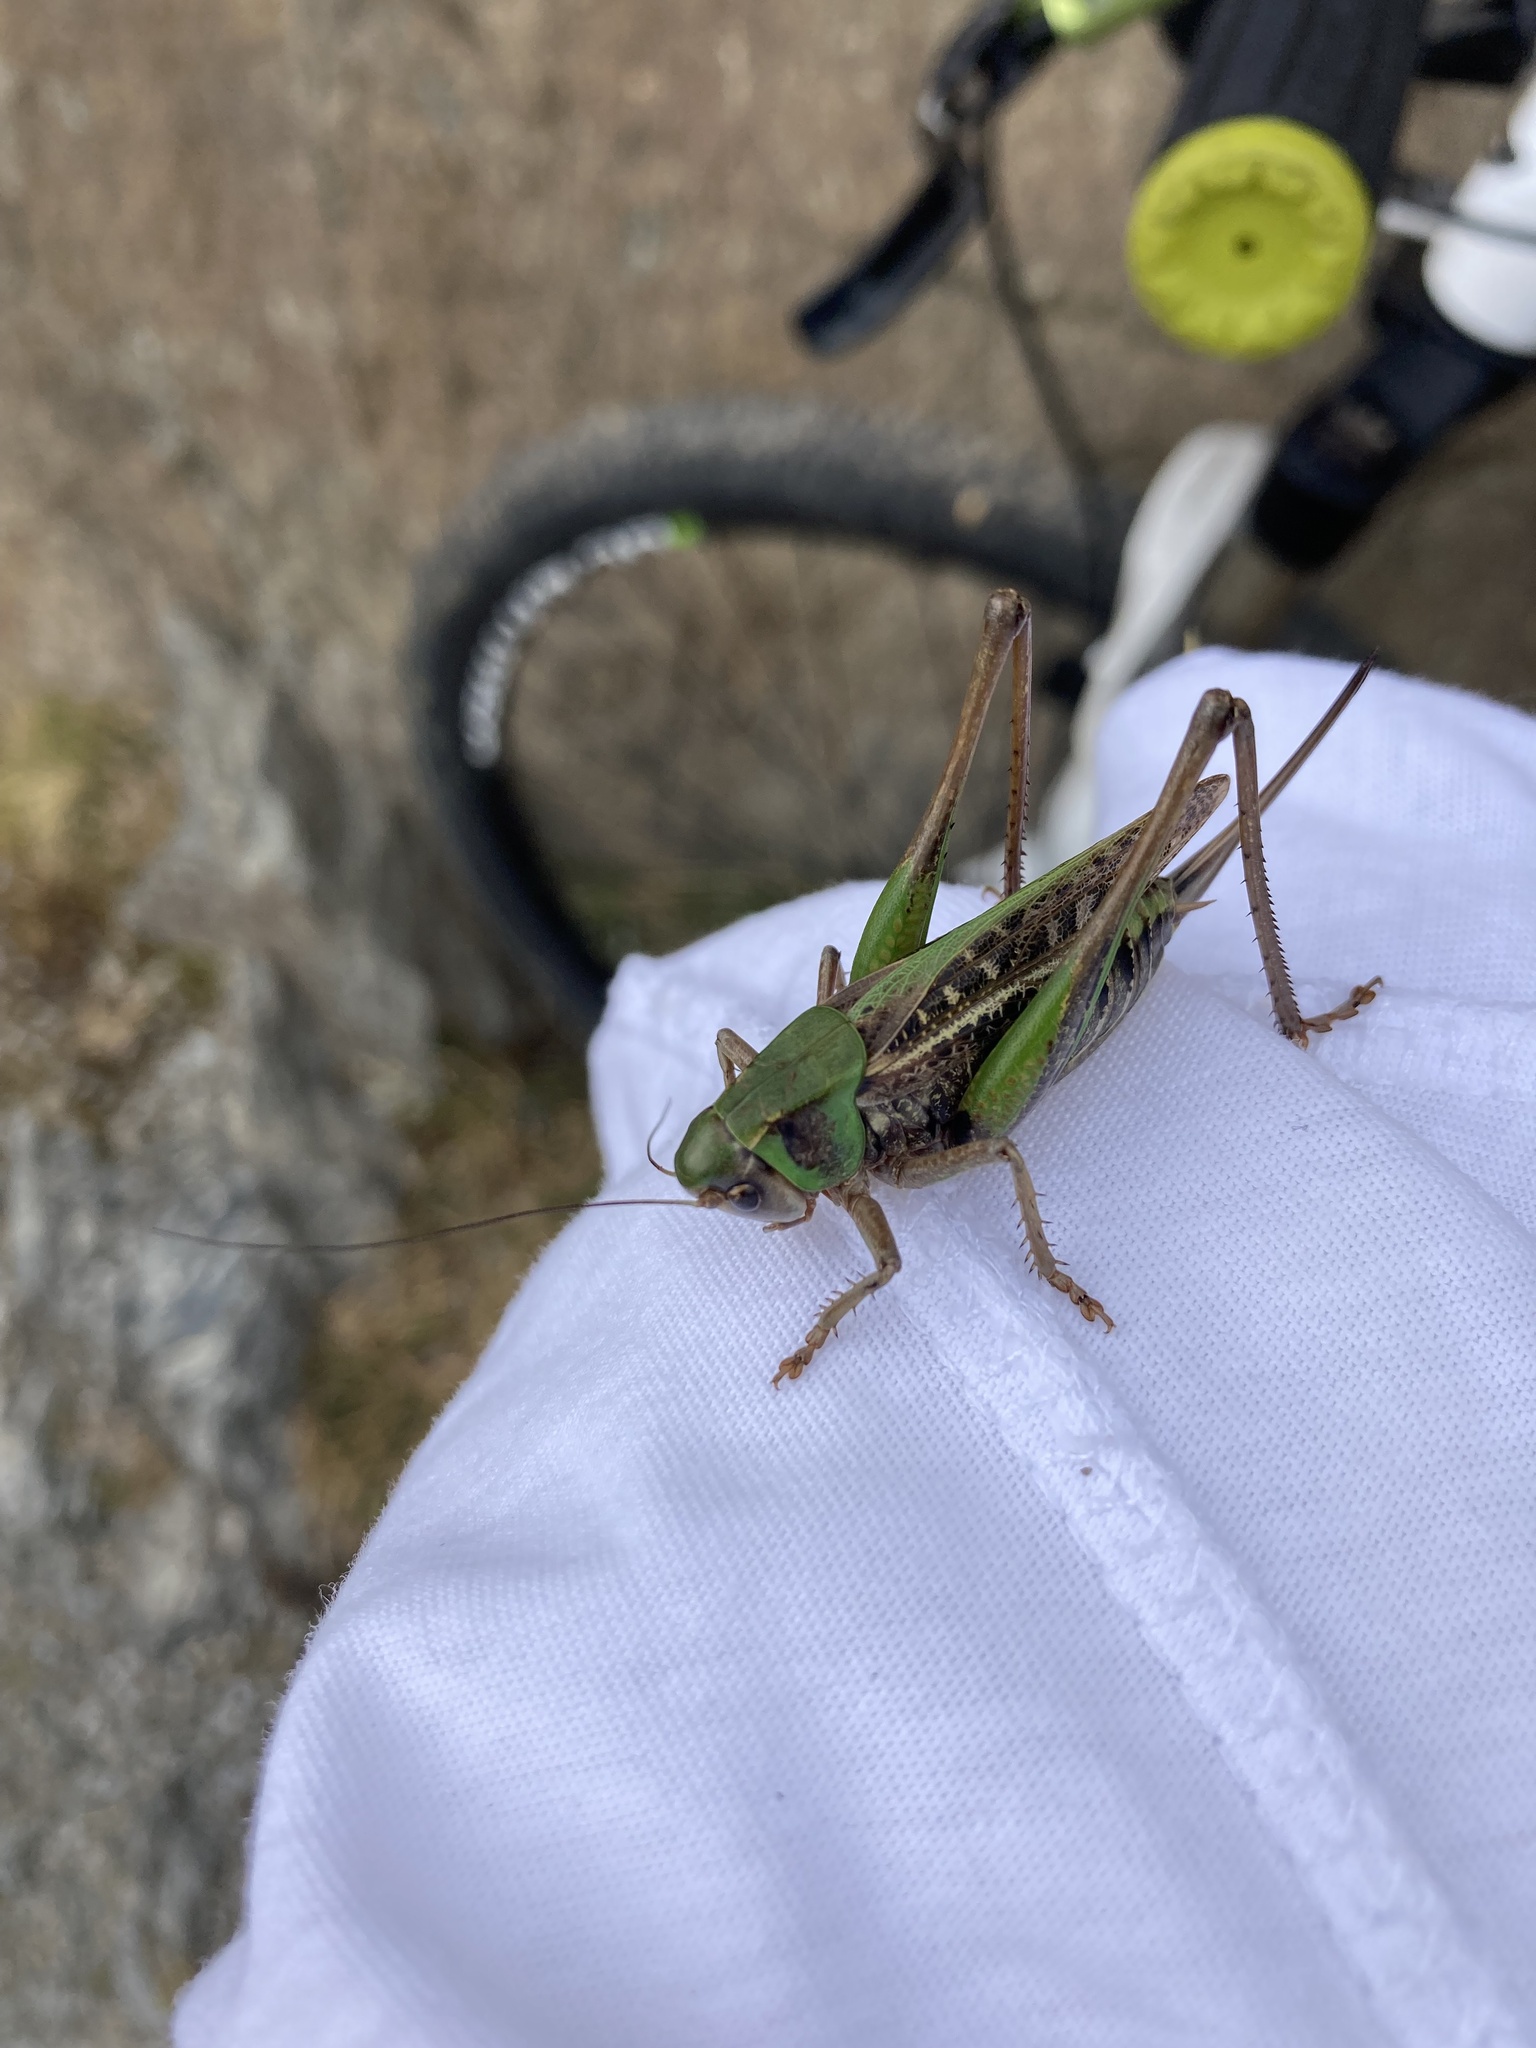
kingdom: Animalia
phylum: Arthropoda
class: Insecta
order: Orthoptera
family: Tettigoniidae
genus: Decticus
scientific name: Decticus verrucivorus
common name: Wart-biter
